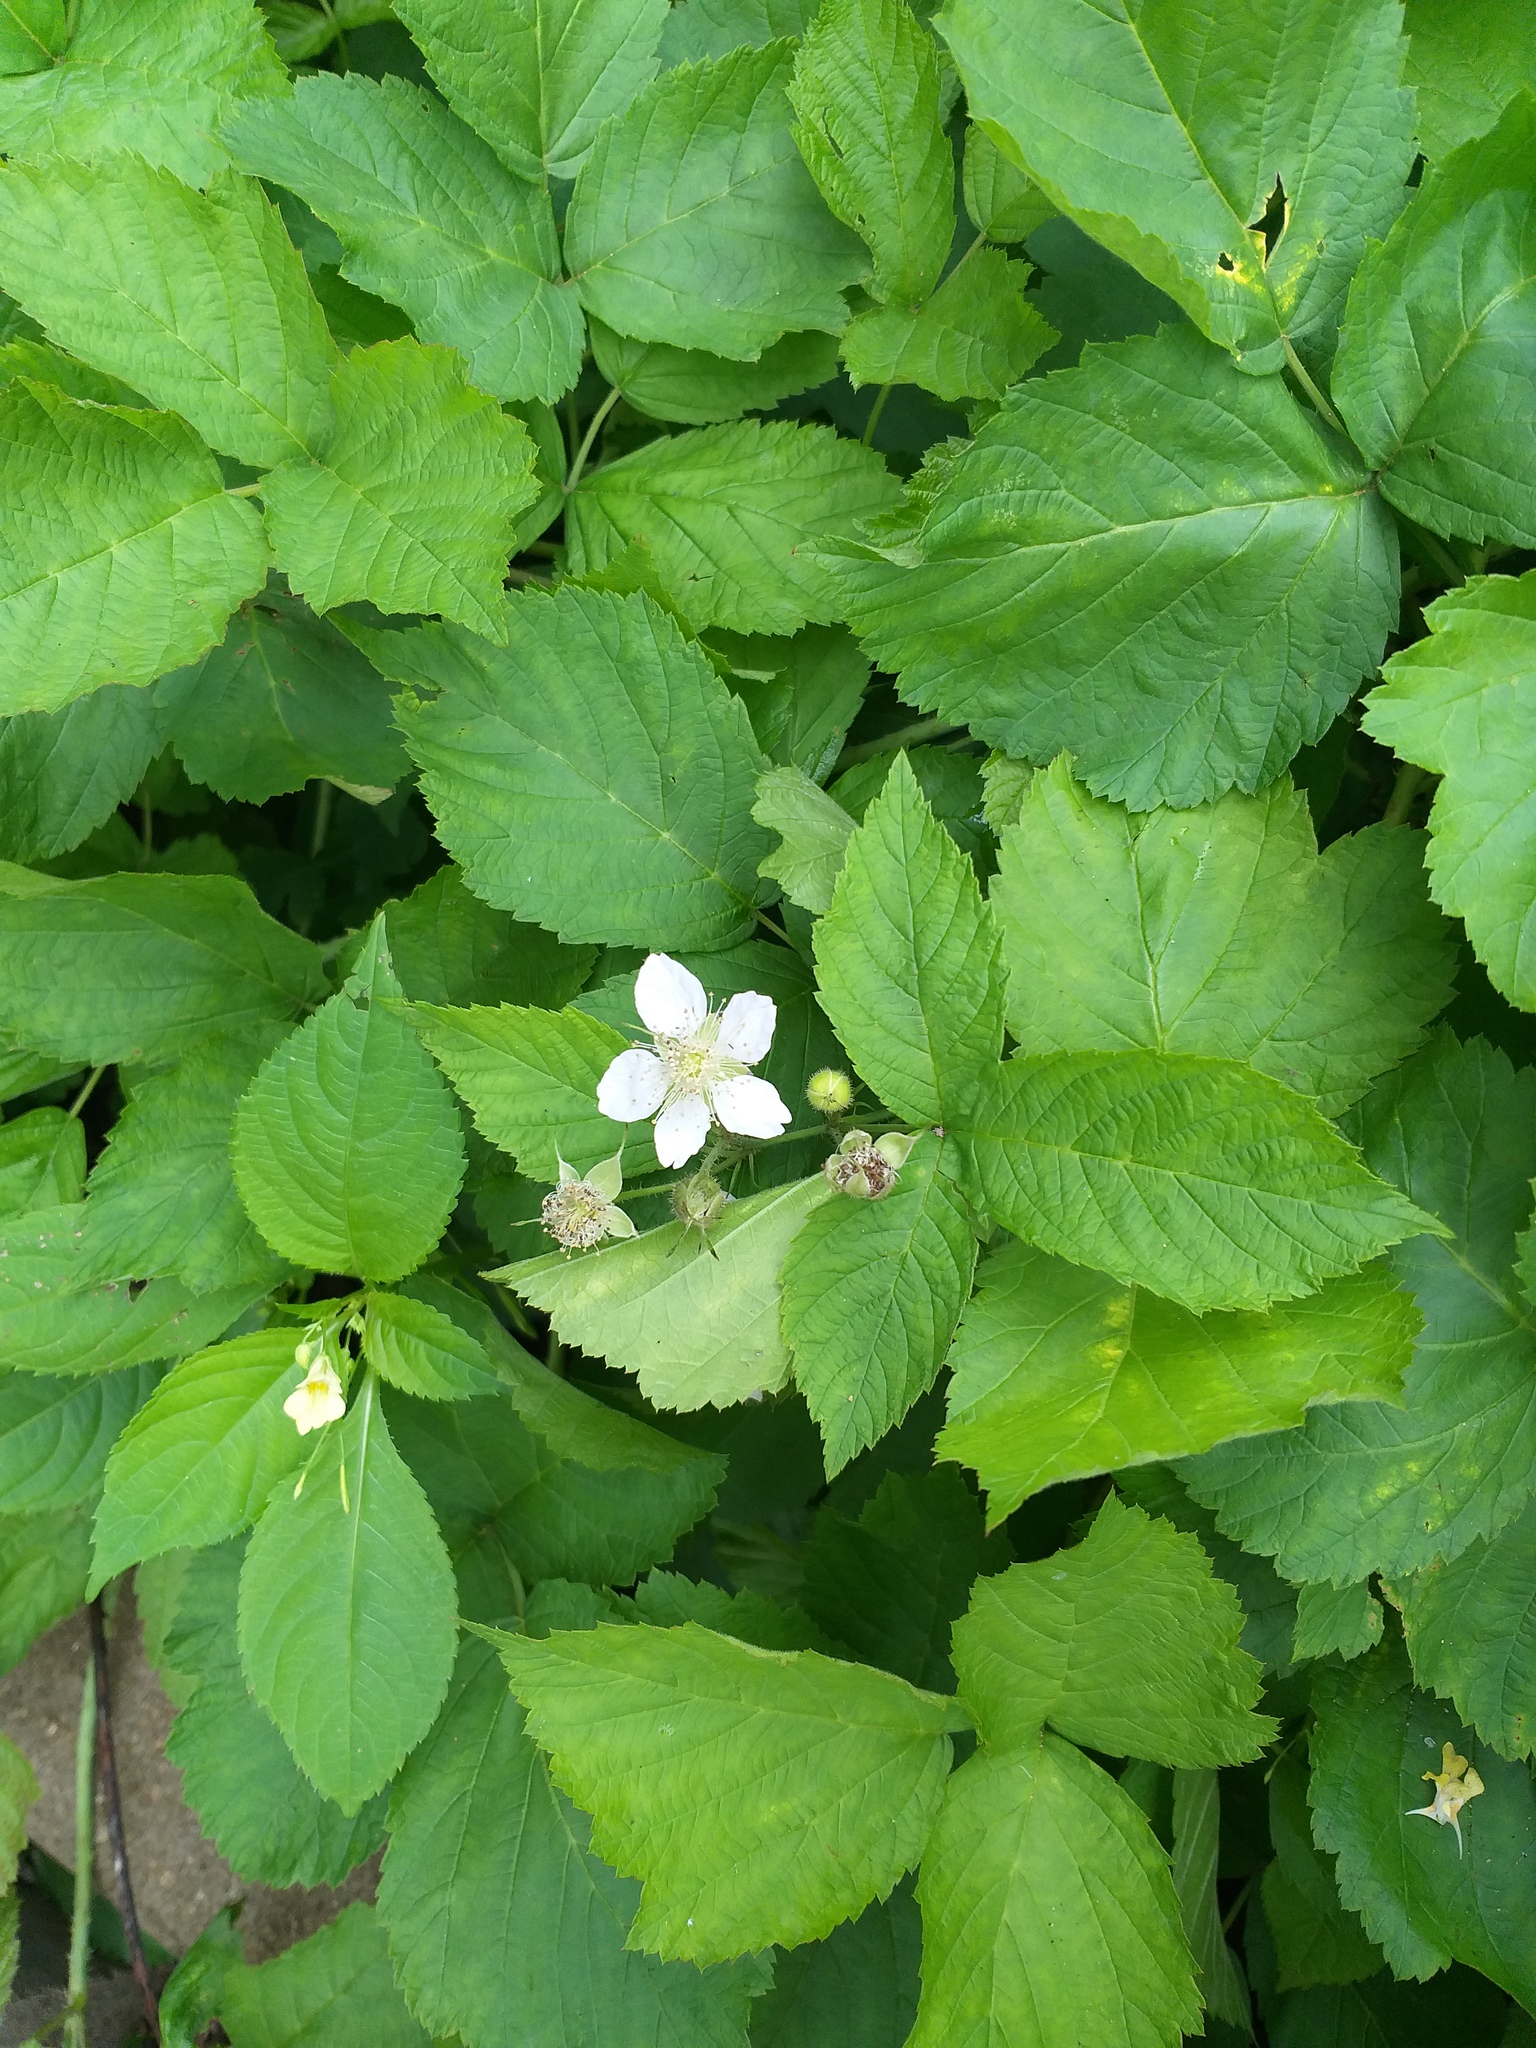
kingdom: Plantae
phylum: Tracheophyta
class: Magnoliopsida
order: Rosales
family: Rosaceae
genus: Rubus
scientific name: Rubus caesius
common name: Dewberry
